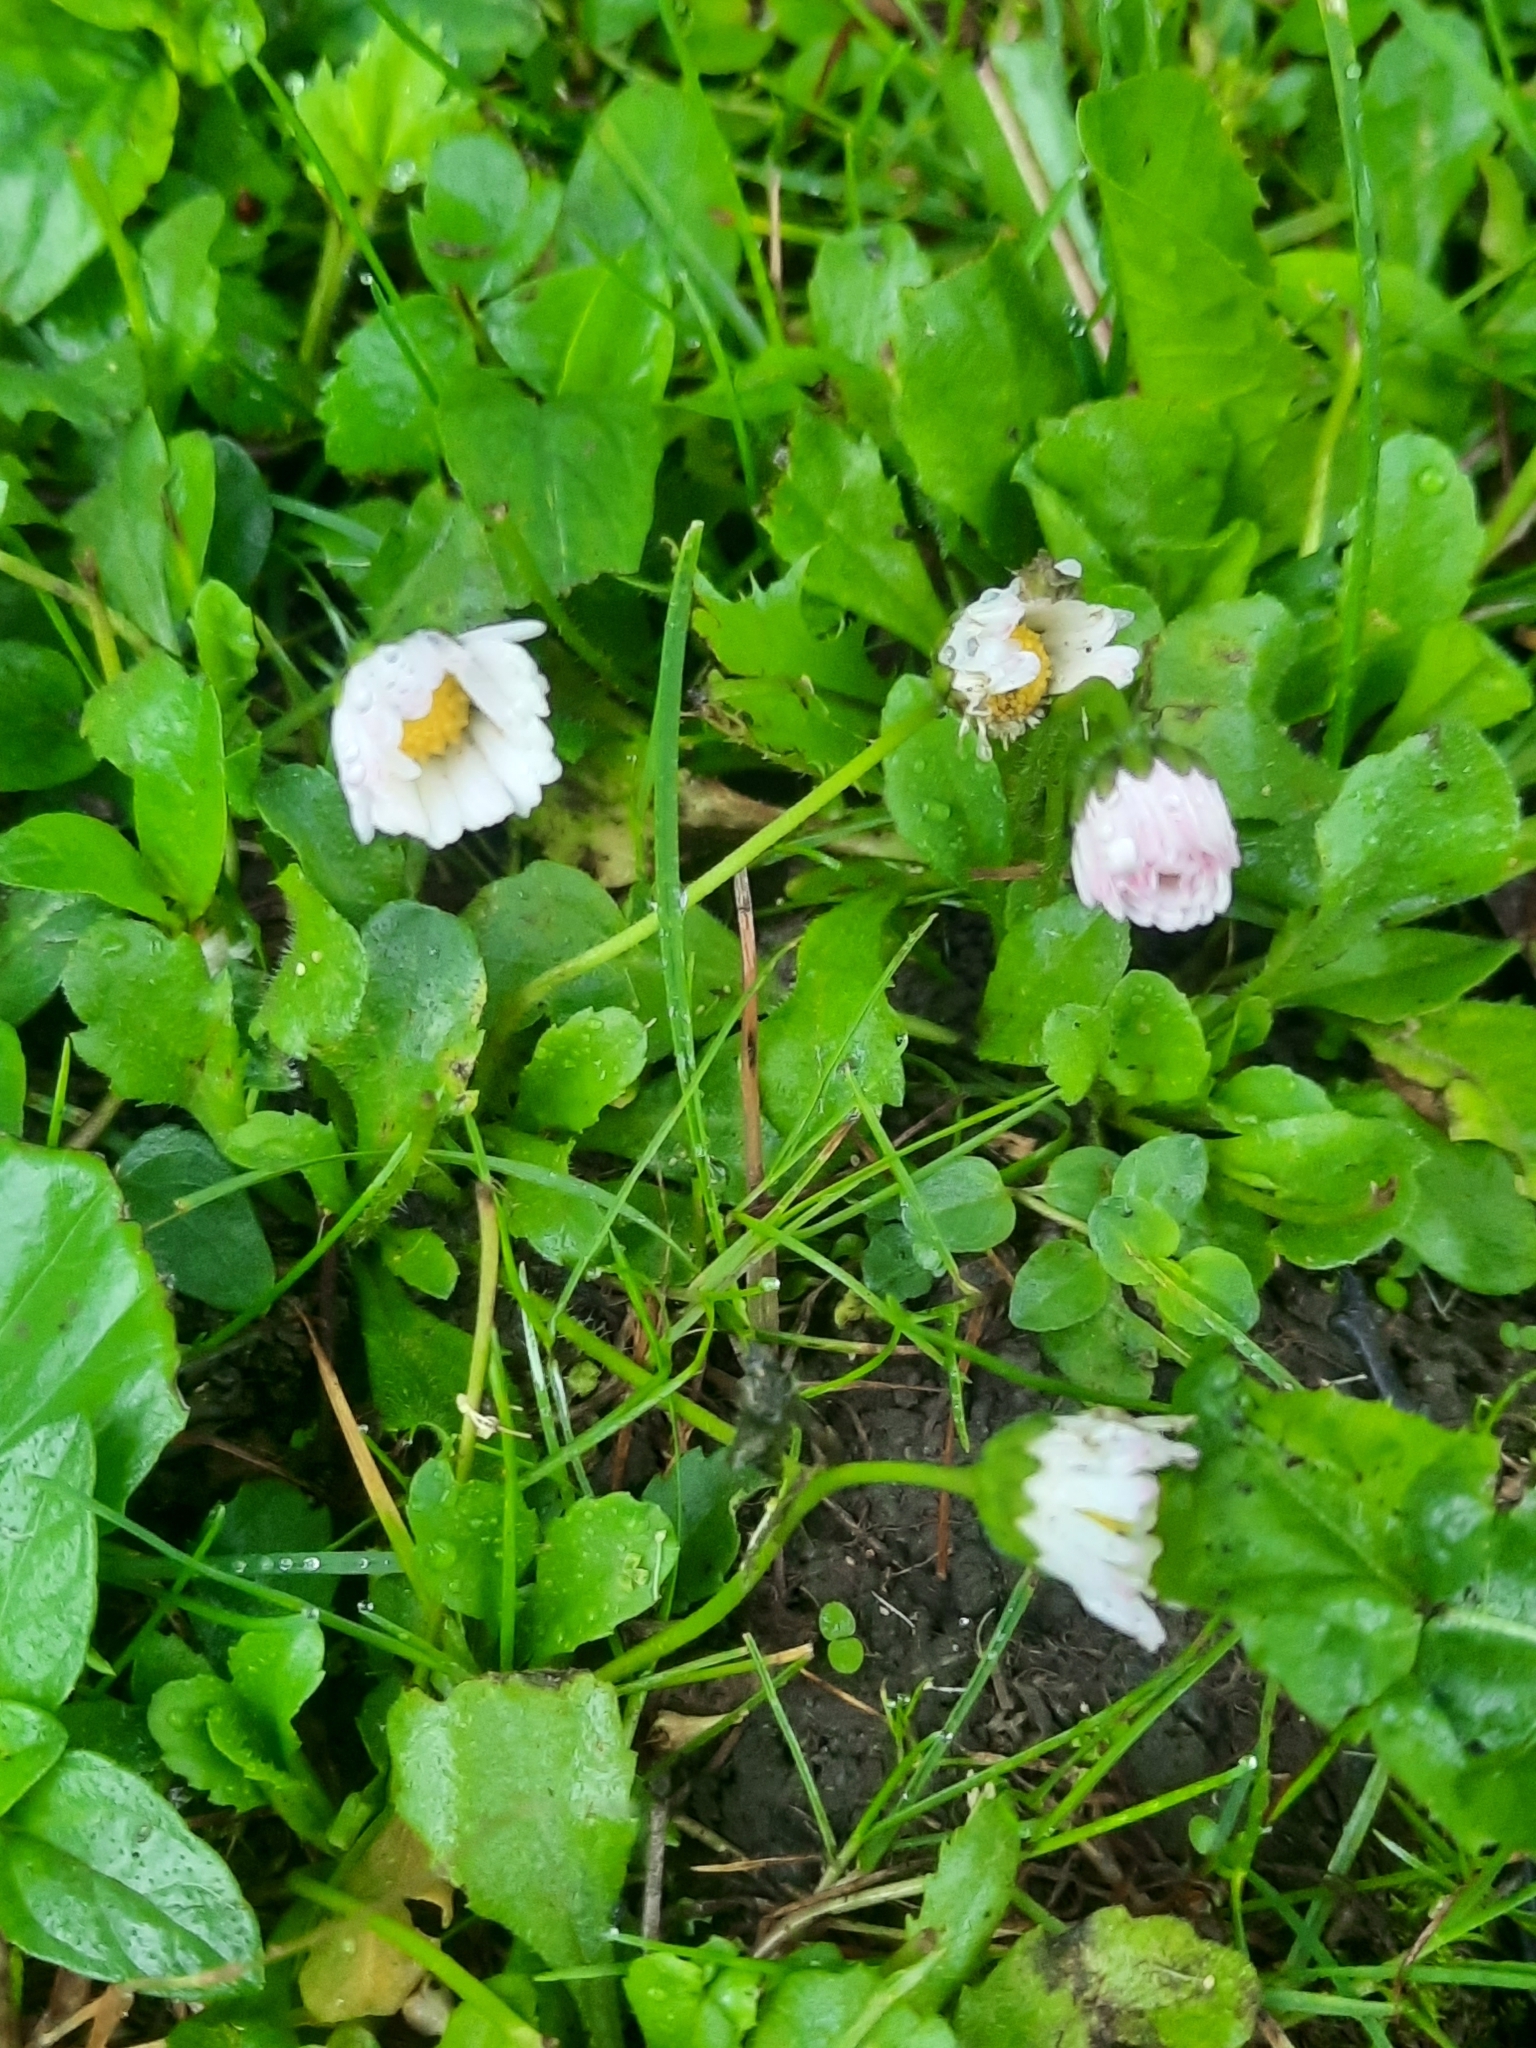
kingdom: Plantae
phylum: Tracheophyta
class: Magnoliopsida
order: Asterales
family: Asteraceae
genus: Bellis
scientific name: Bellis perennis
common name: Lawndaisy
